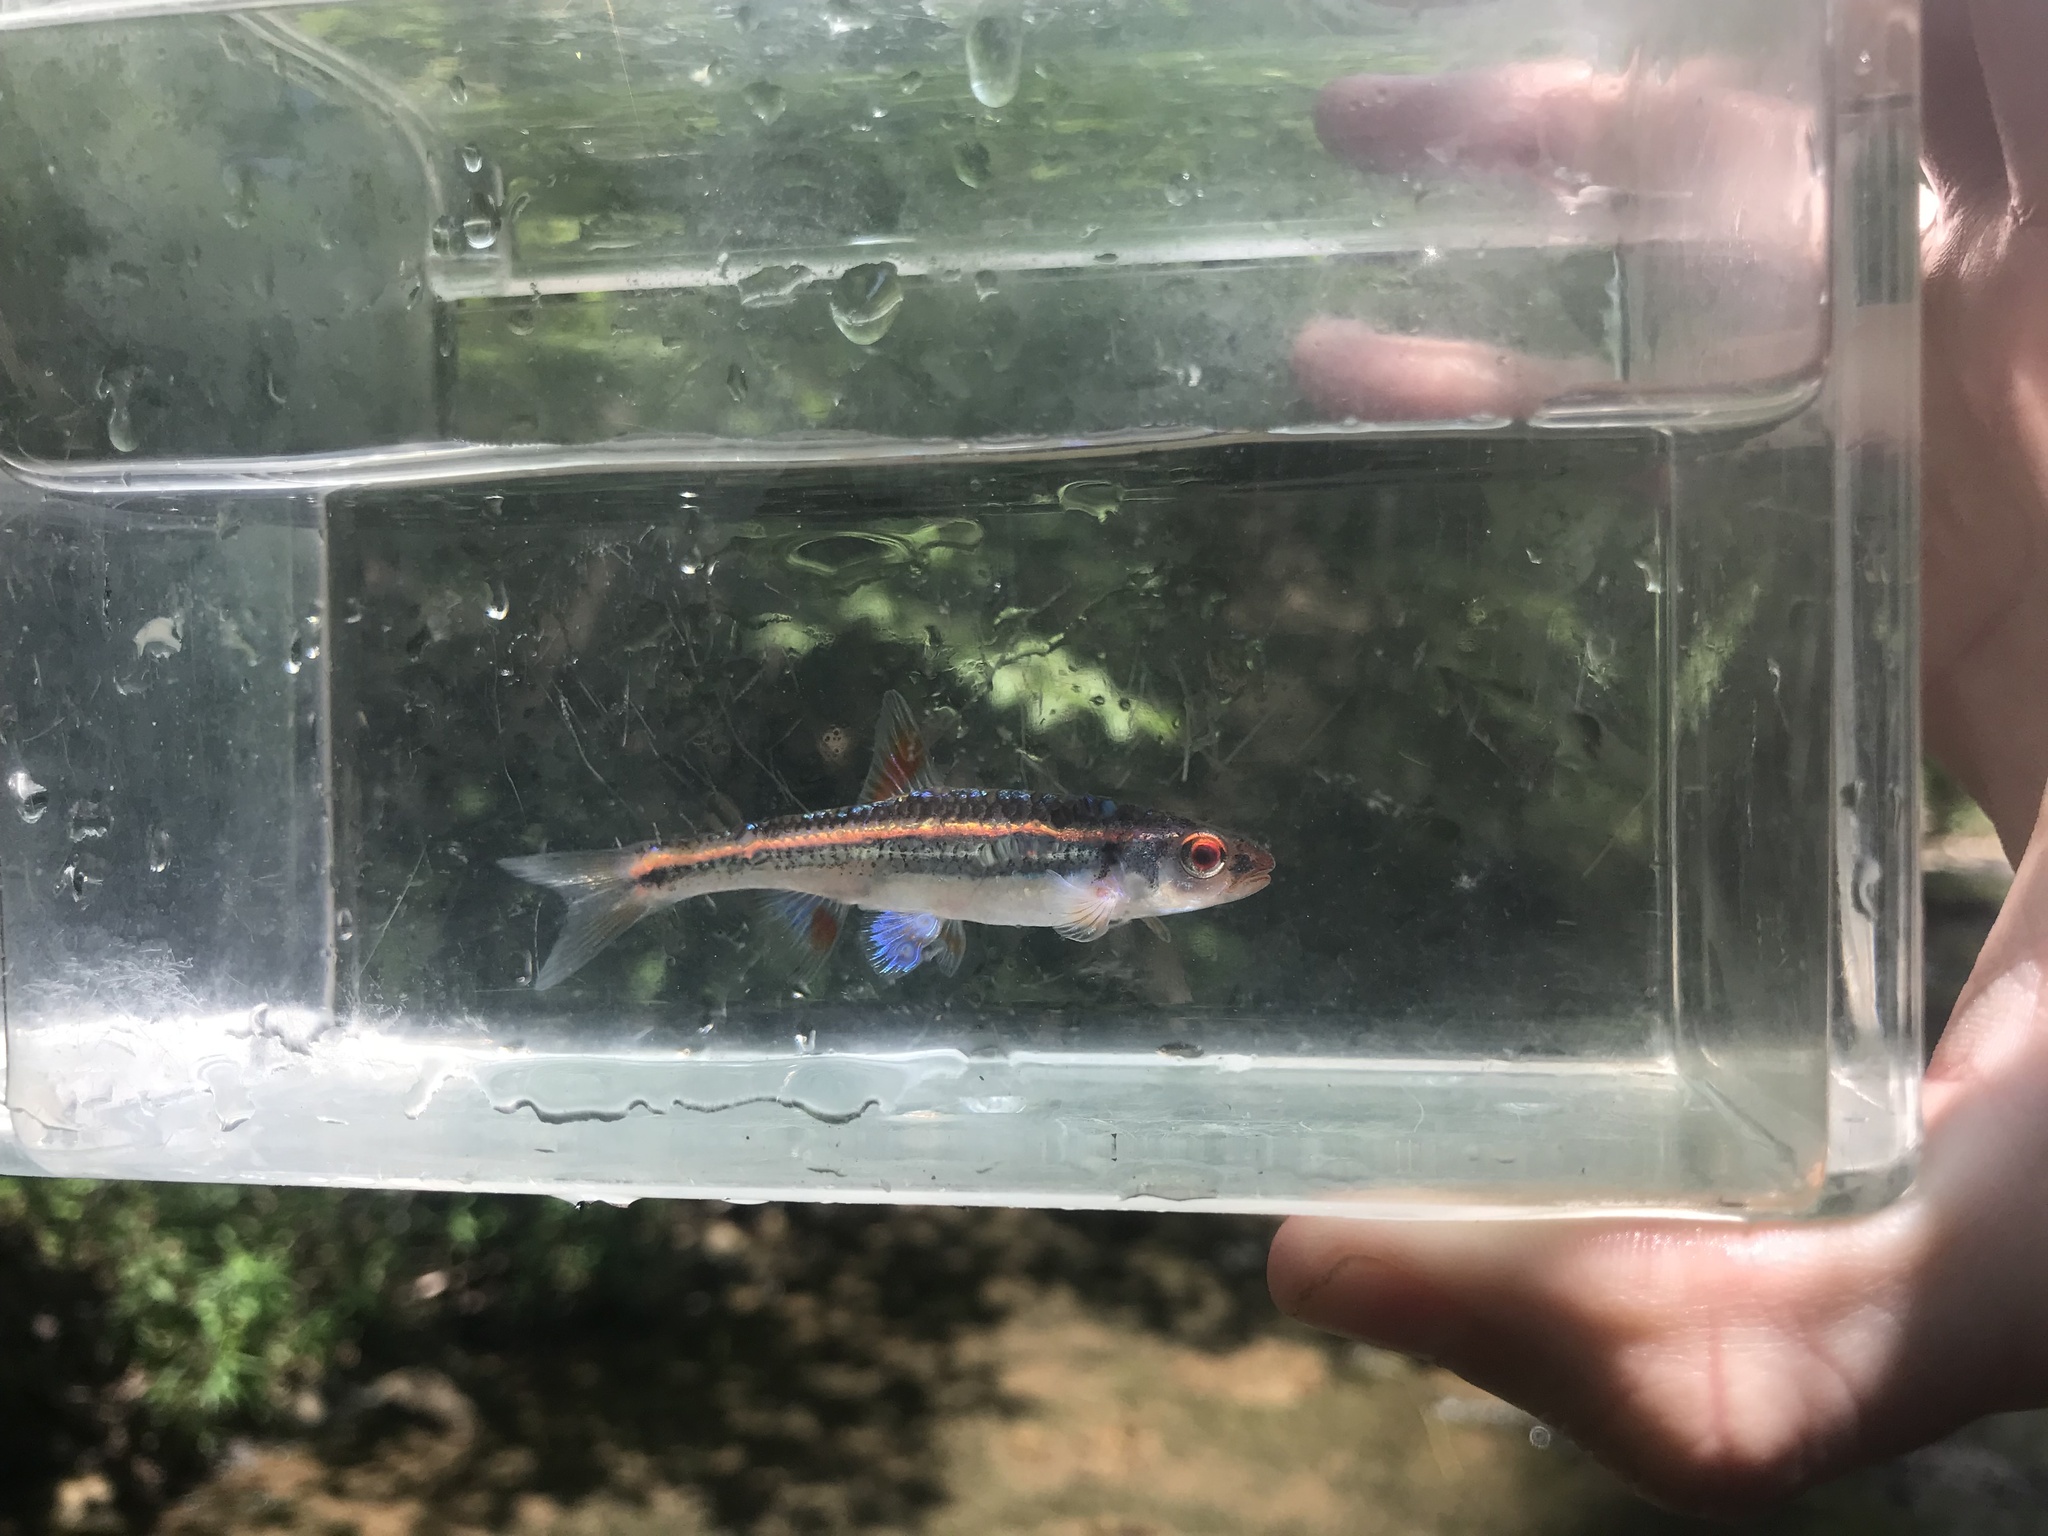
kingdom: Animalia
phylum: Chordata
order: Cypriniformes
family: Cyprinidae
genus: Notropis
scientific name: Notropis
